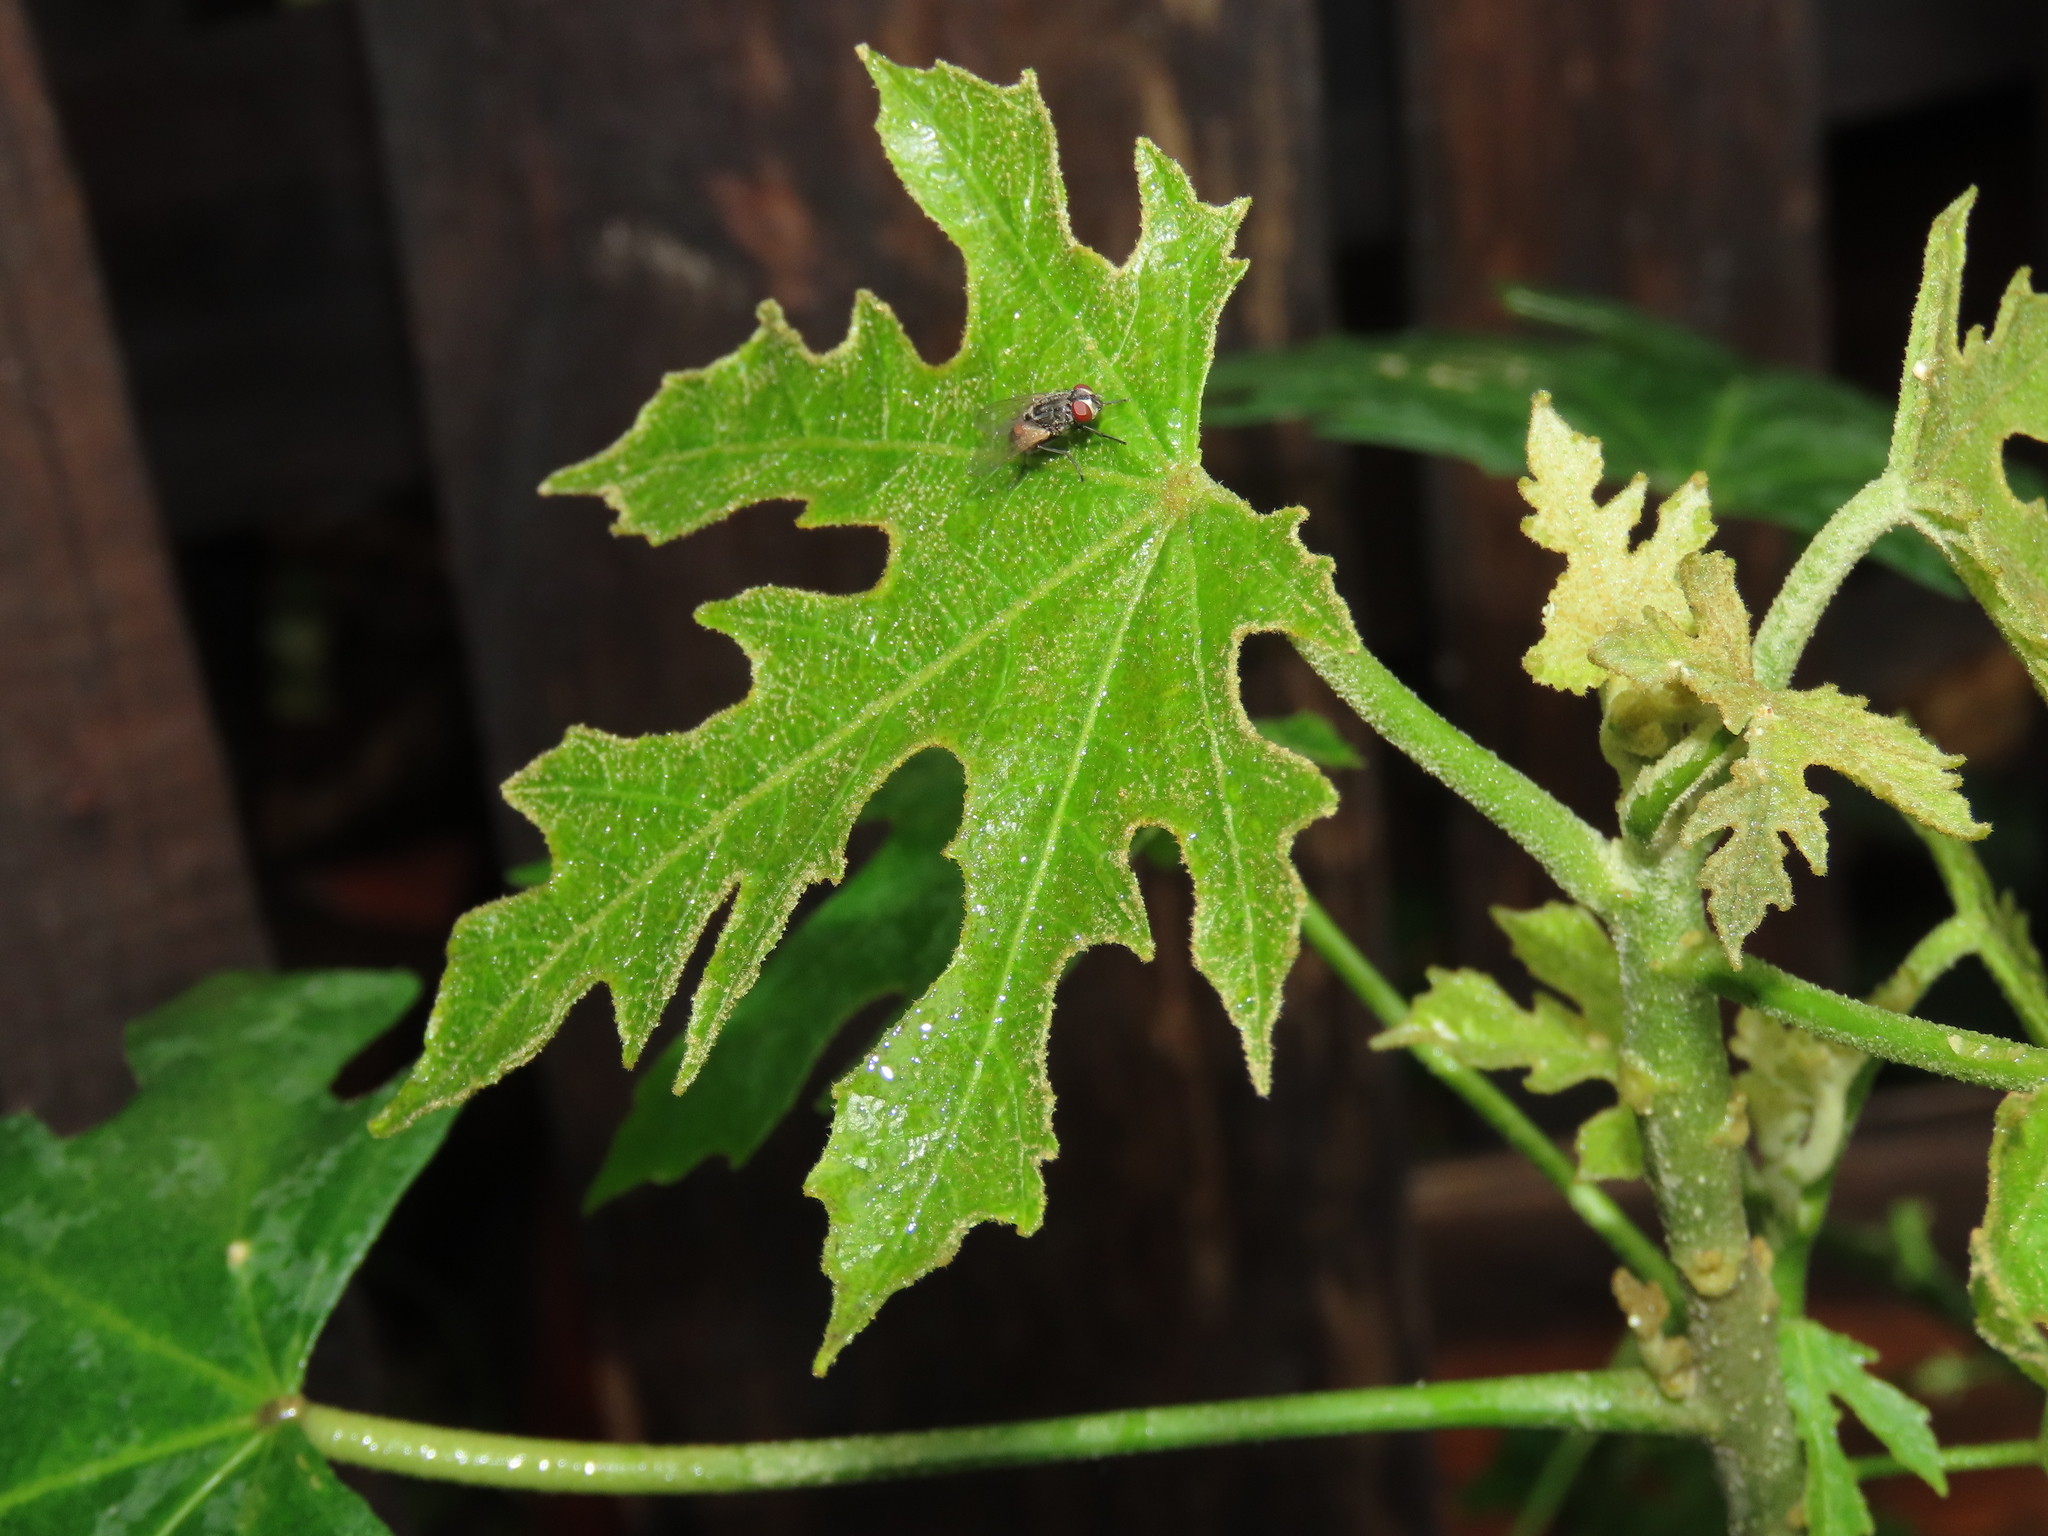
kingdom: Plantae
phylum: Tracheophyta
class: Magnoliopsida
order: Malpighiales
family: Euphorbiaceae
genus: Melanolepis
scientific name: Melanolepis multiglandulosa
